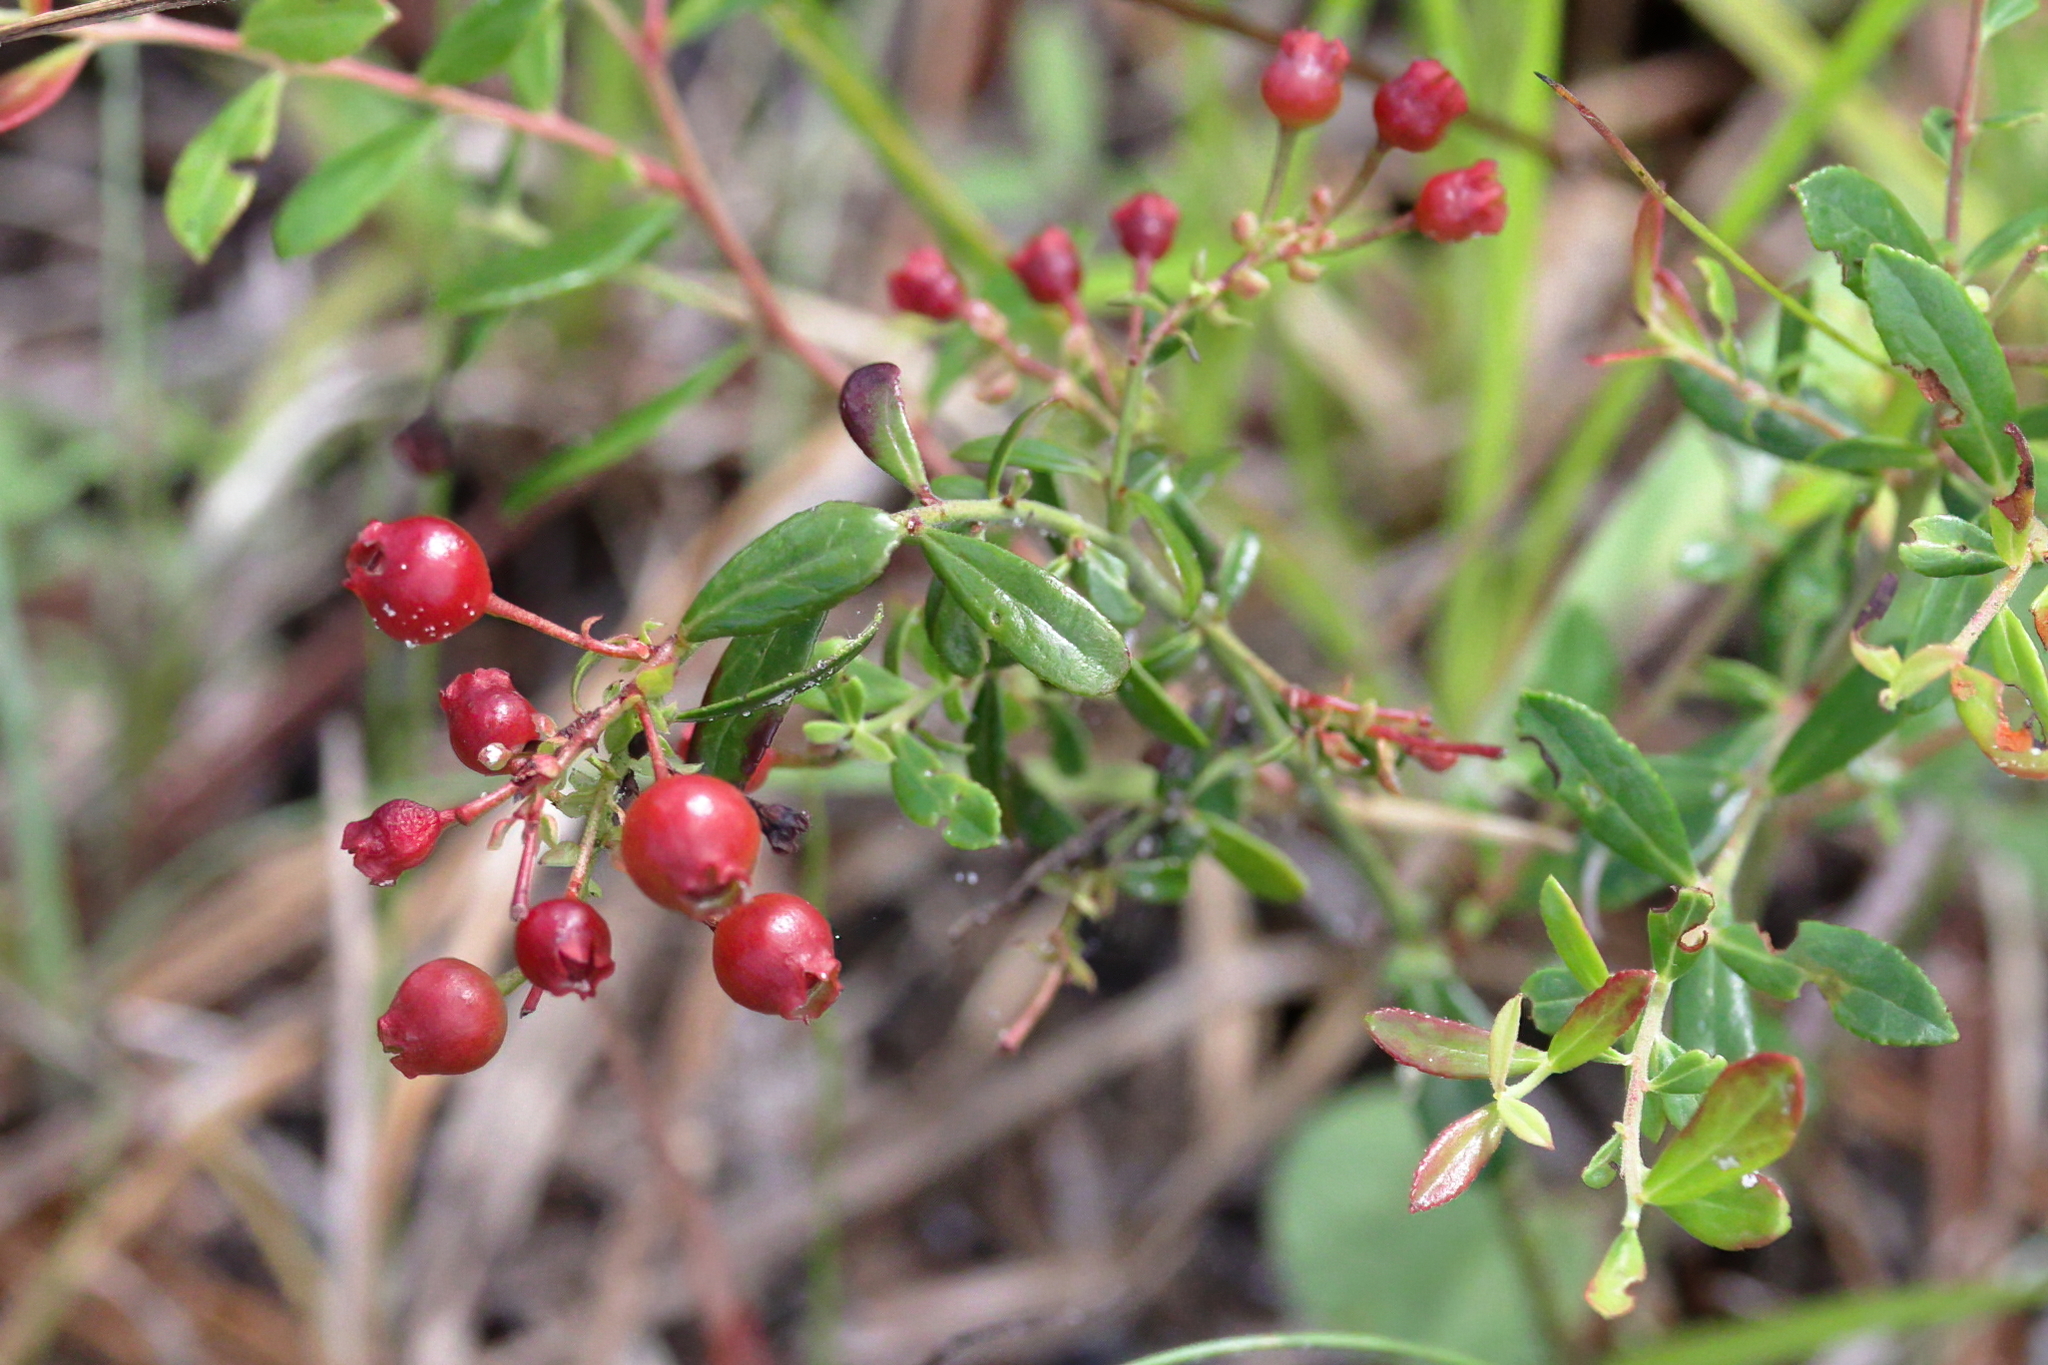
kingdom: Plantae
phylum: Tracheophyta
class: Magnoliopsida
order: Ericales
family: Ericaceae
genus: Vaccinium
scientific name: Vaccinium myrsinites
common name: Evergreen blueberry
